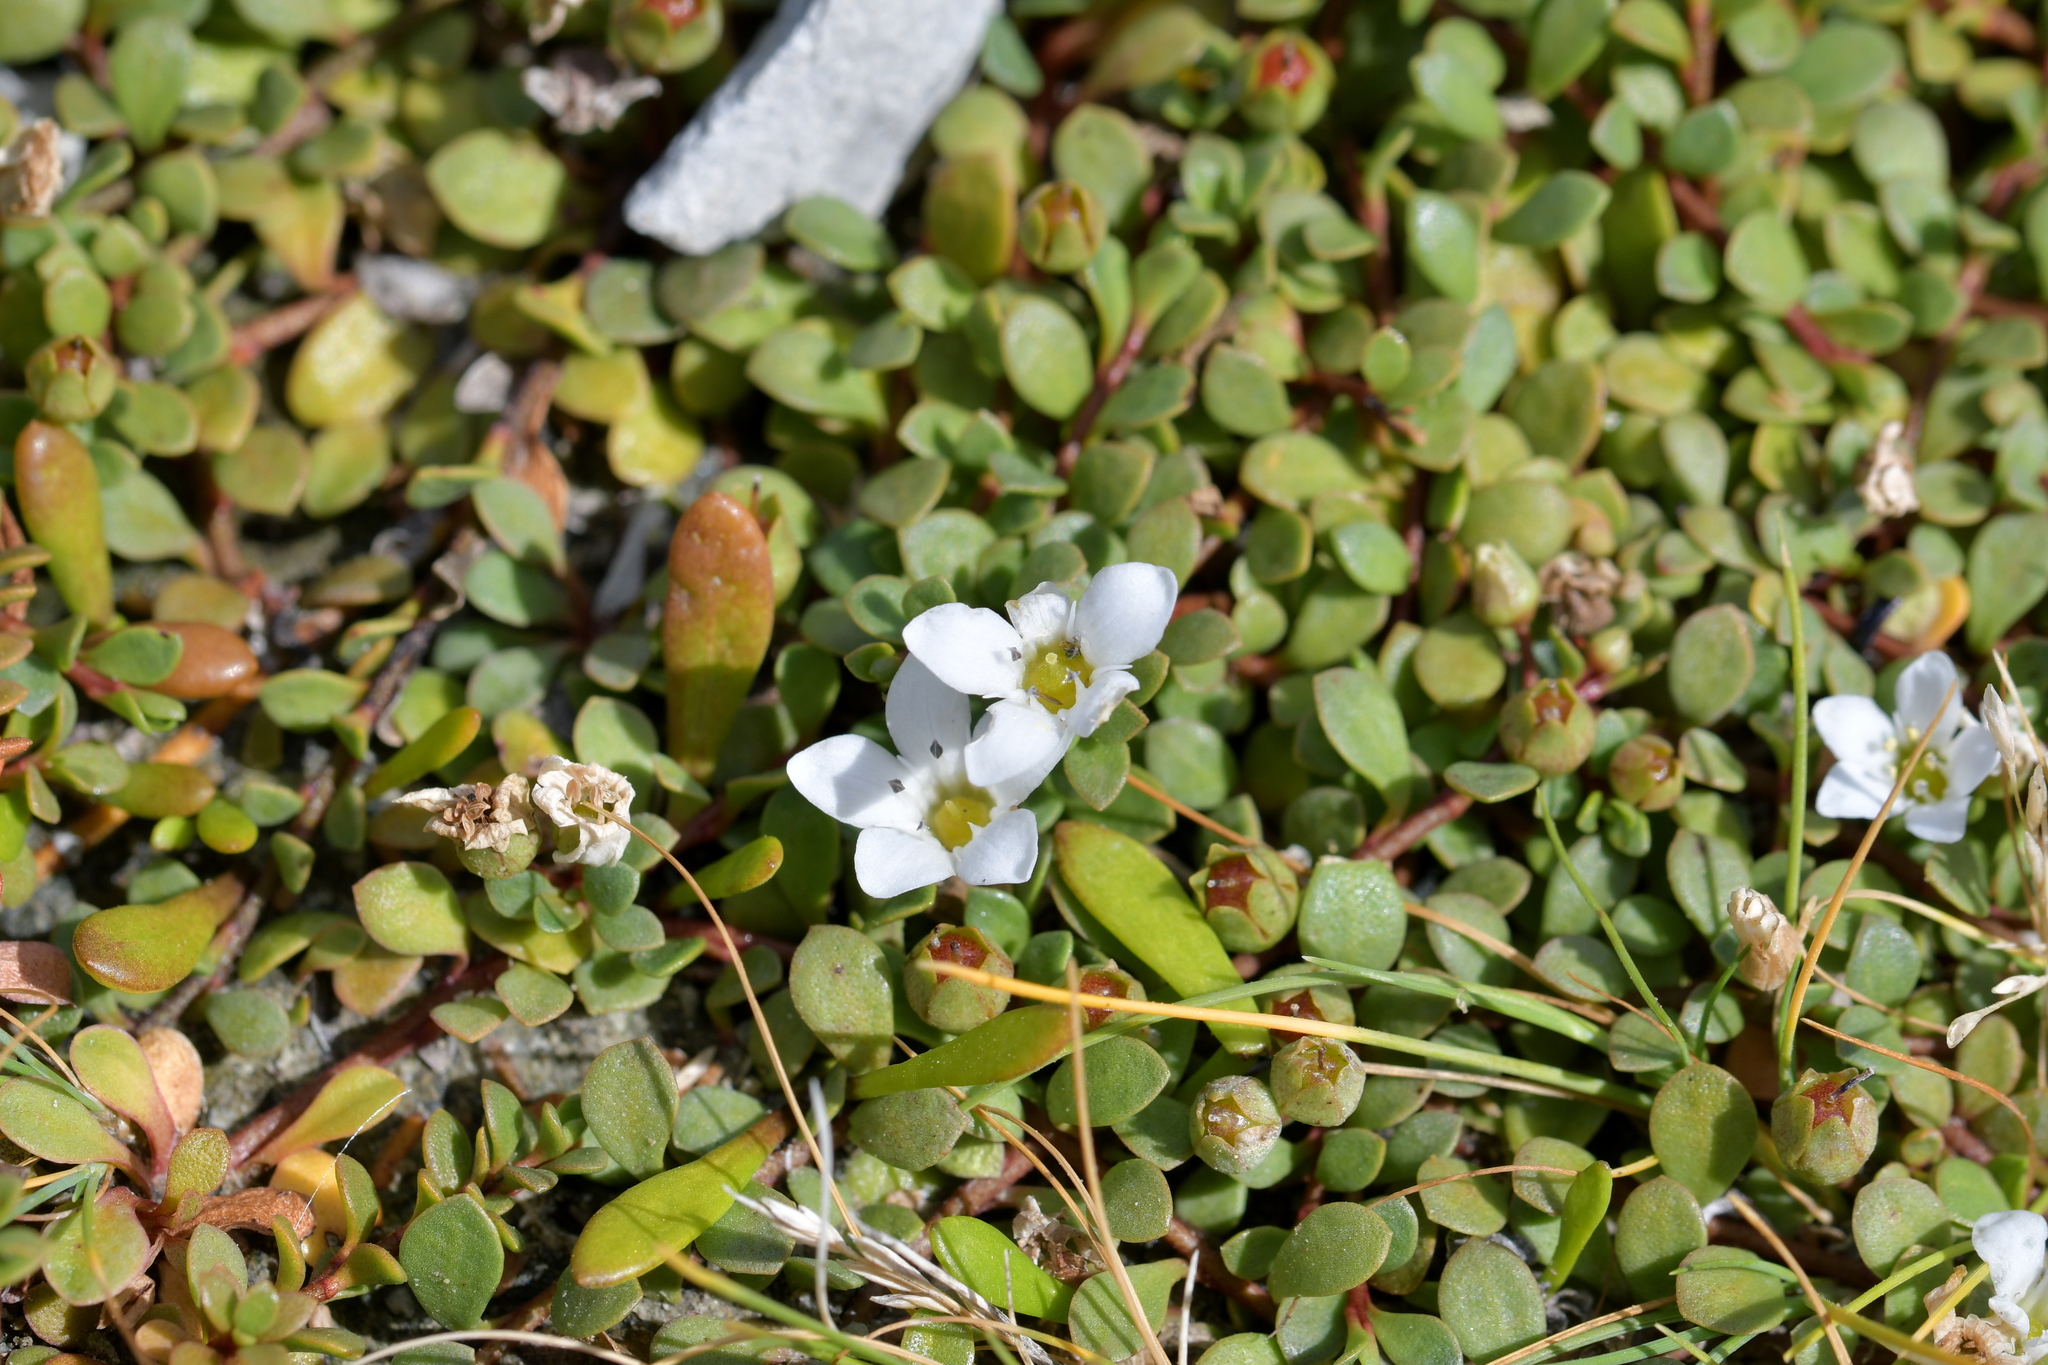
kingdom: Plantae
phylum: Tracheophyta
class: Magnoliopsida
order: Ericales
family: Primulaceae
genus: Samolus
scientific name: Samolus repens
